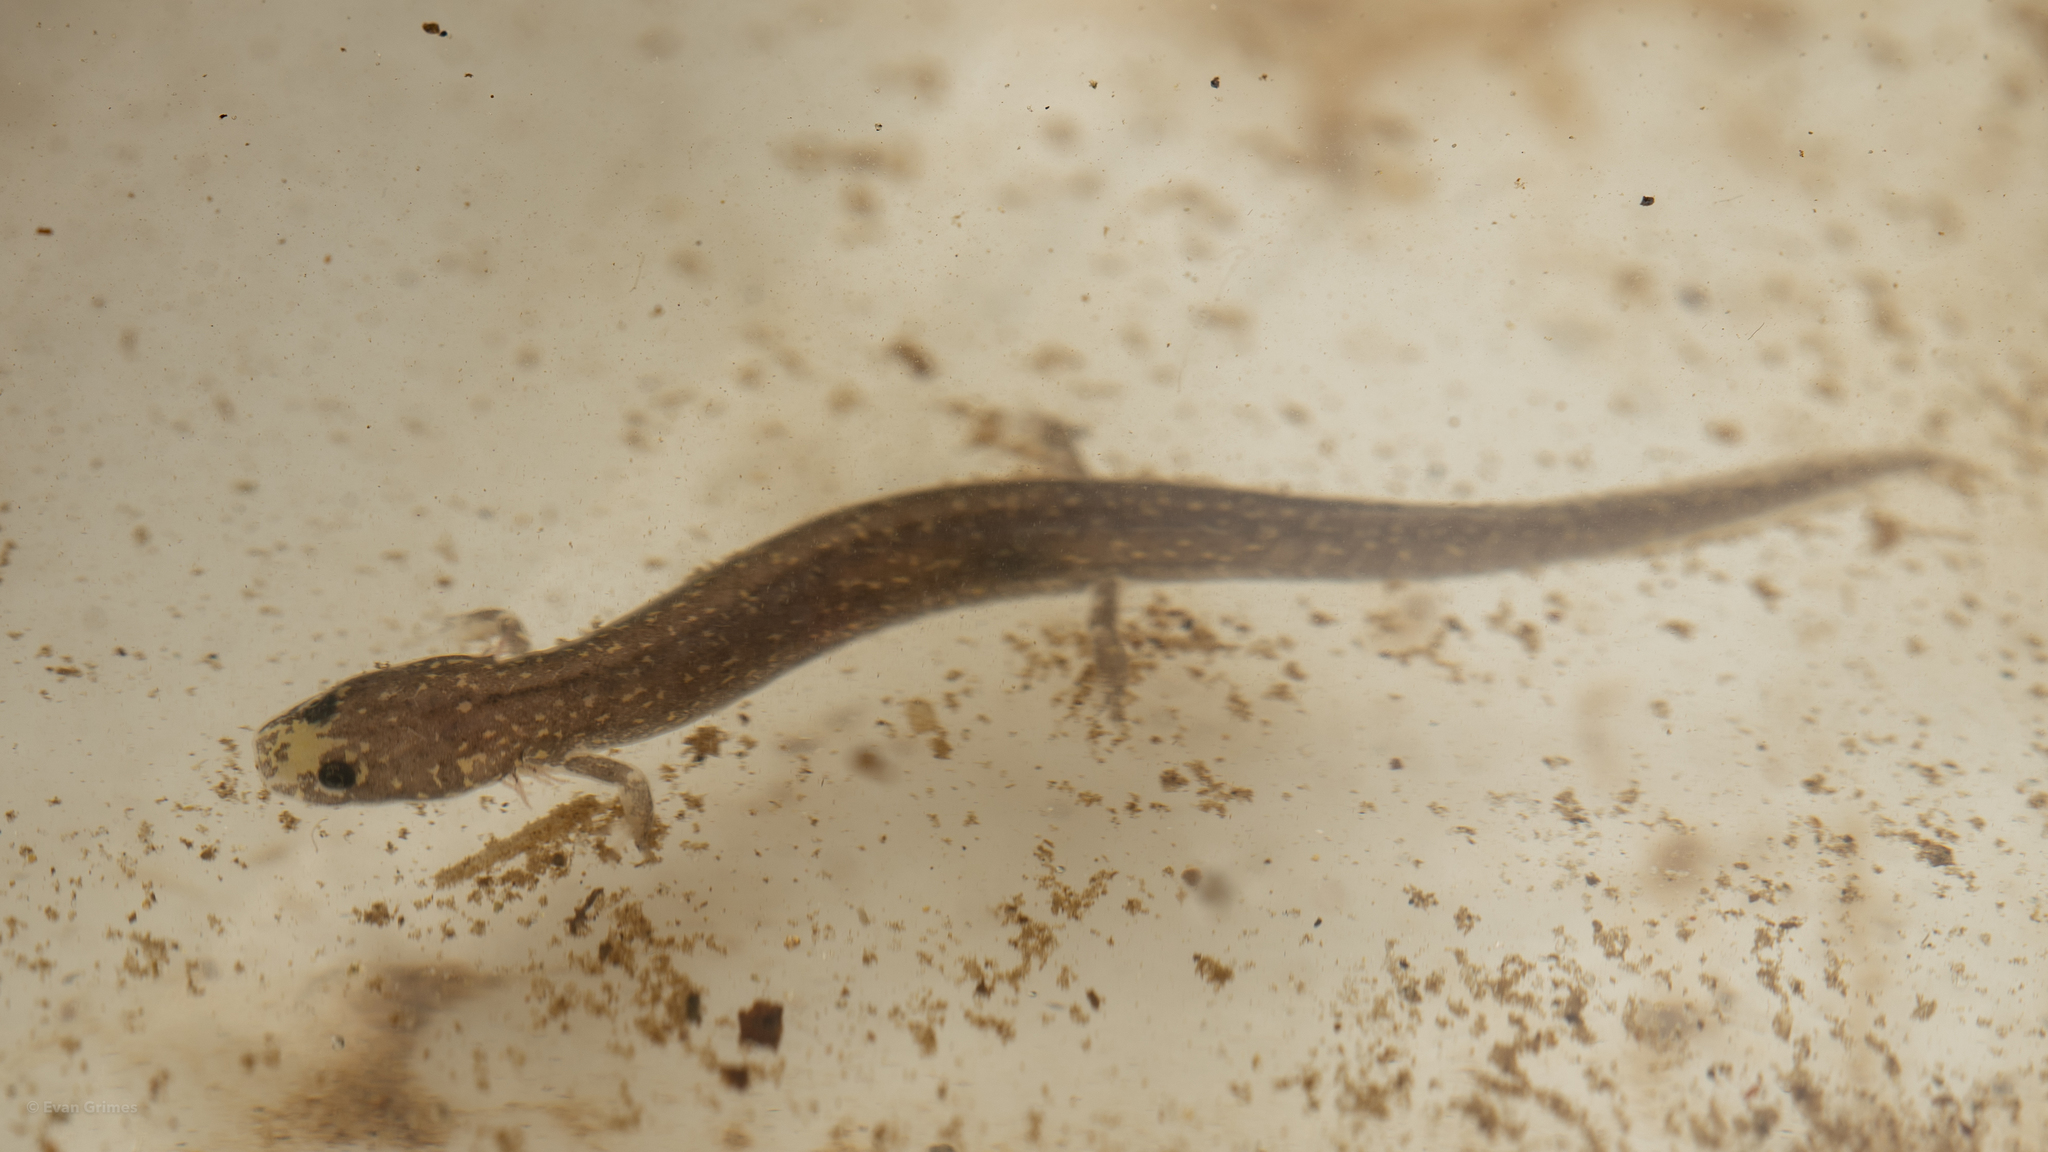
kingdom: Animalia
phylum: Chordata
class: Amphibia
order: Caudata
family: Plethodontidae
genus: Urspelerpes
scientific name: Urspelerpes brucei
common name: Patch-nosed salamander
